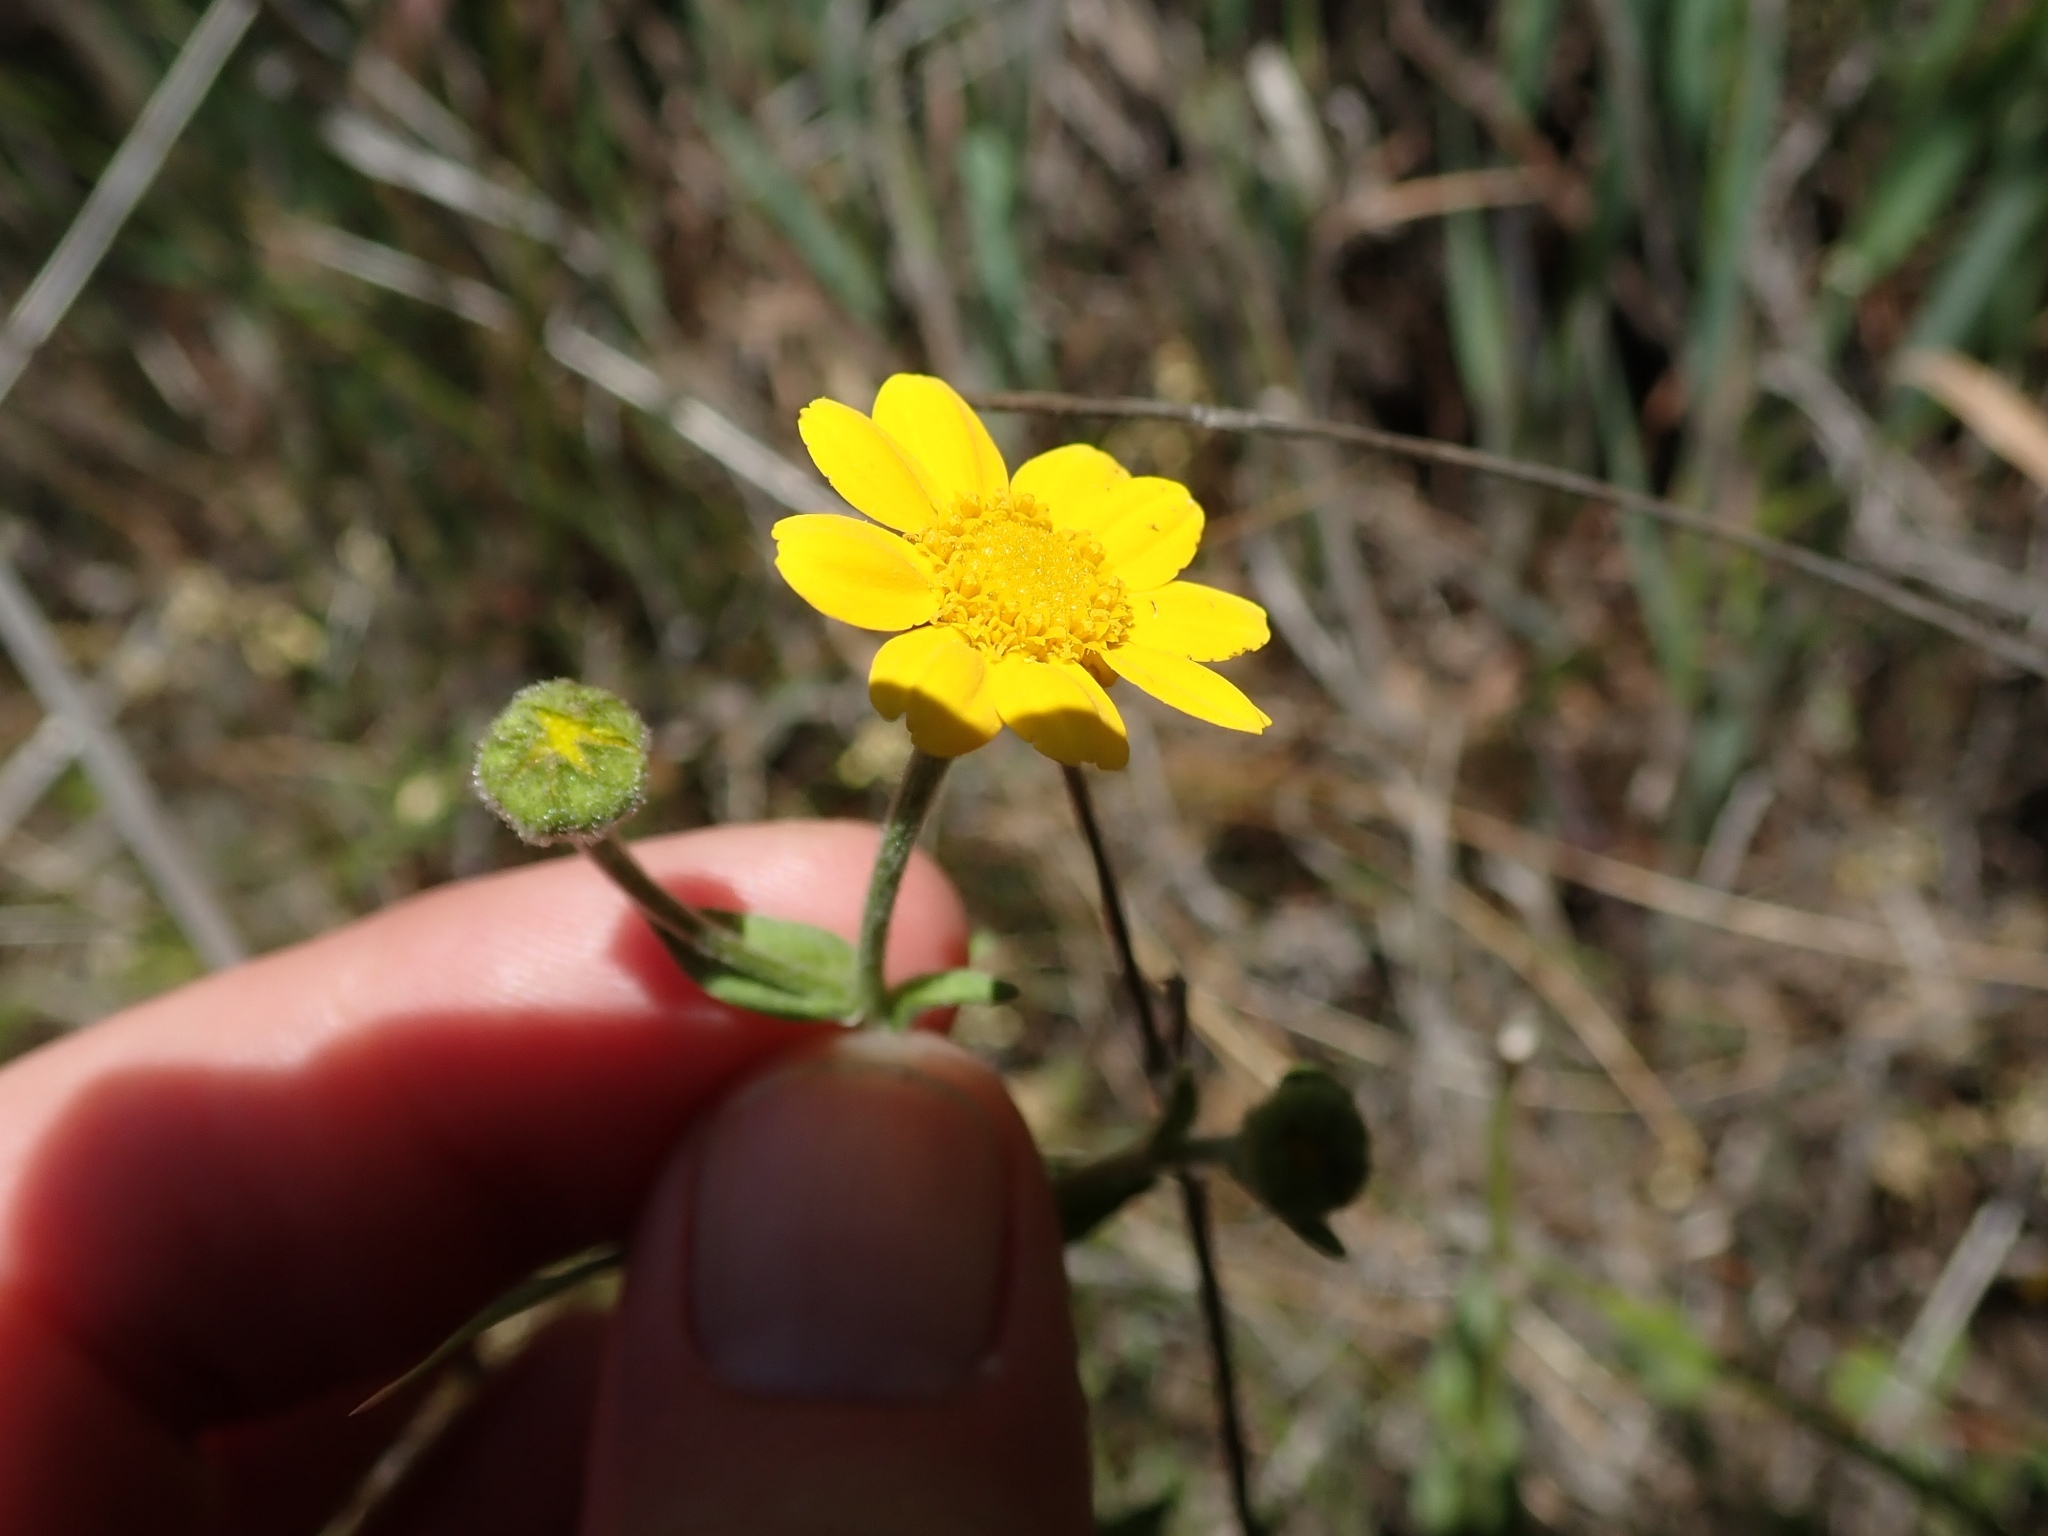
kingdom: Plantae
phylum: Tracheophyta
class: Magnoliopsida
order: Asterales
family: Asteraceae
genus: Monolopia
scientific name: Monolopia gracilens
